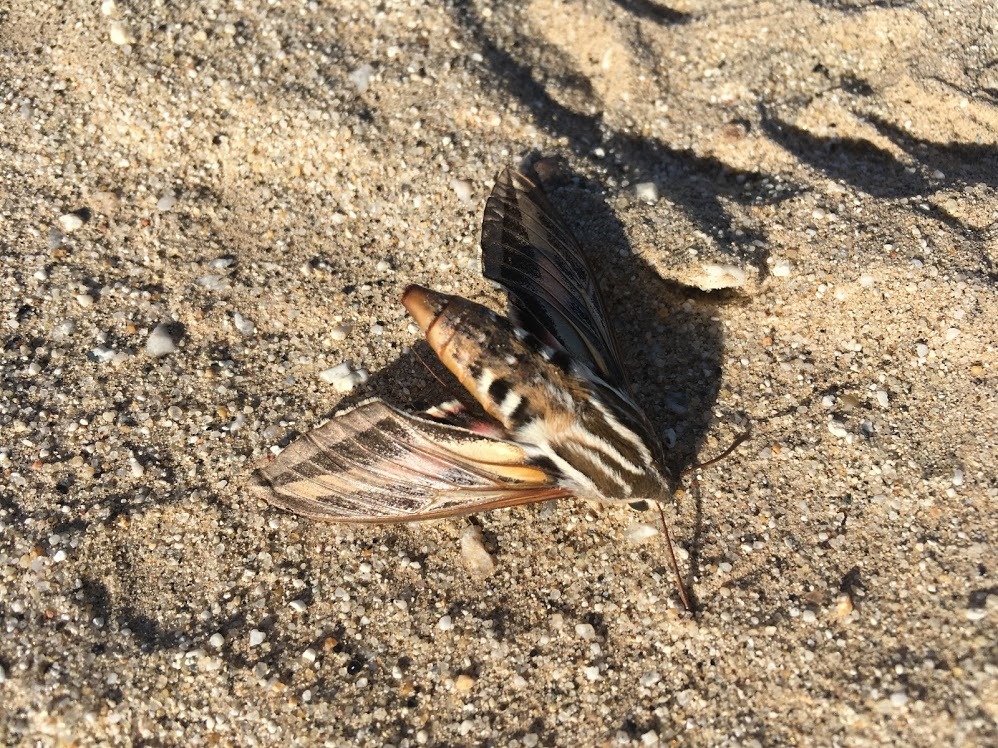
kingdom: Animalia
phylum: Arthropoda
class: Insecta
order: Lepidoptera
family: Sphingidae
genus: Hyles
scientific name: Hyles lineata
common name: White-lined sphinx
